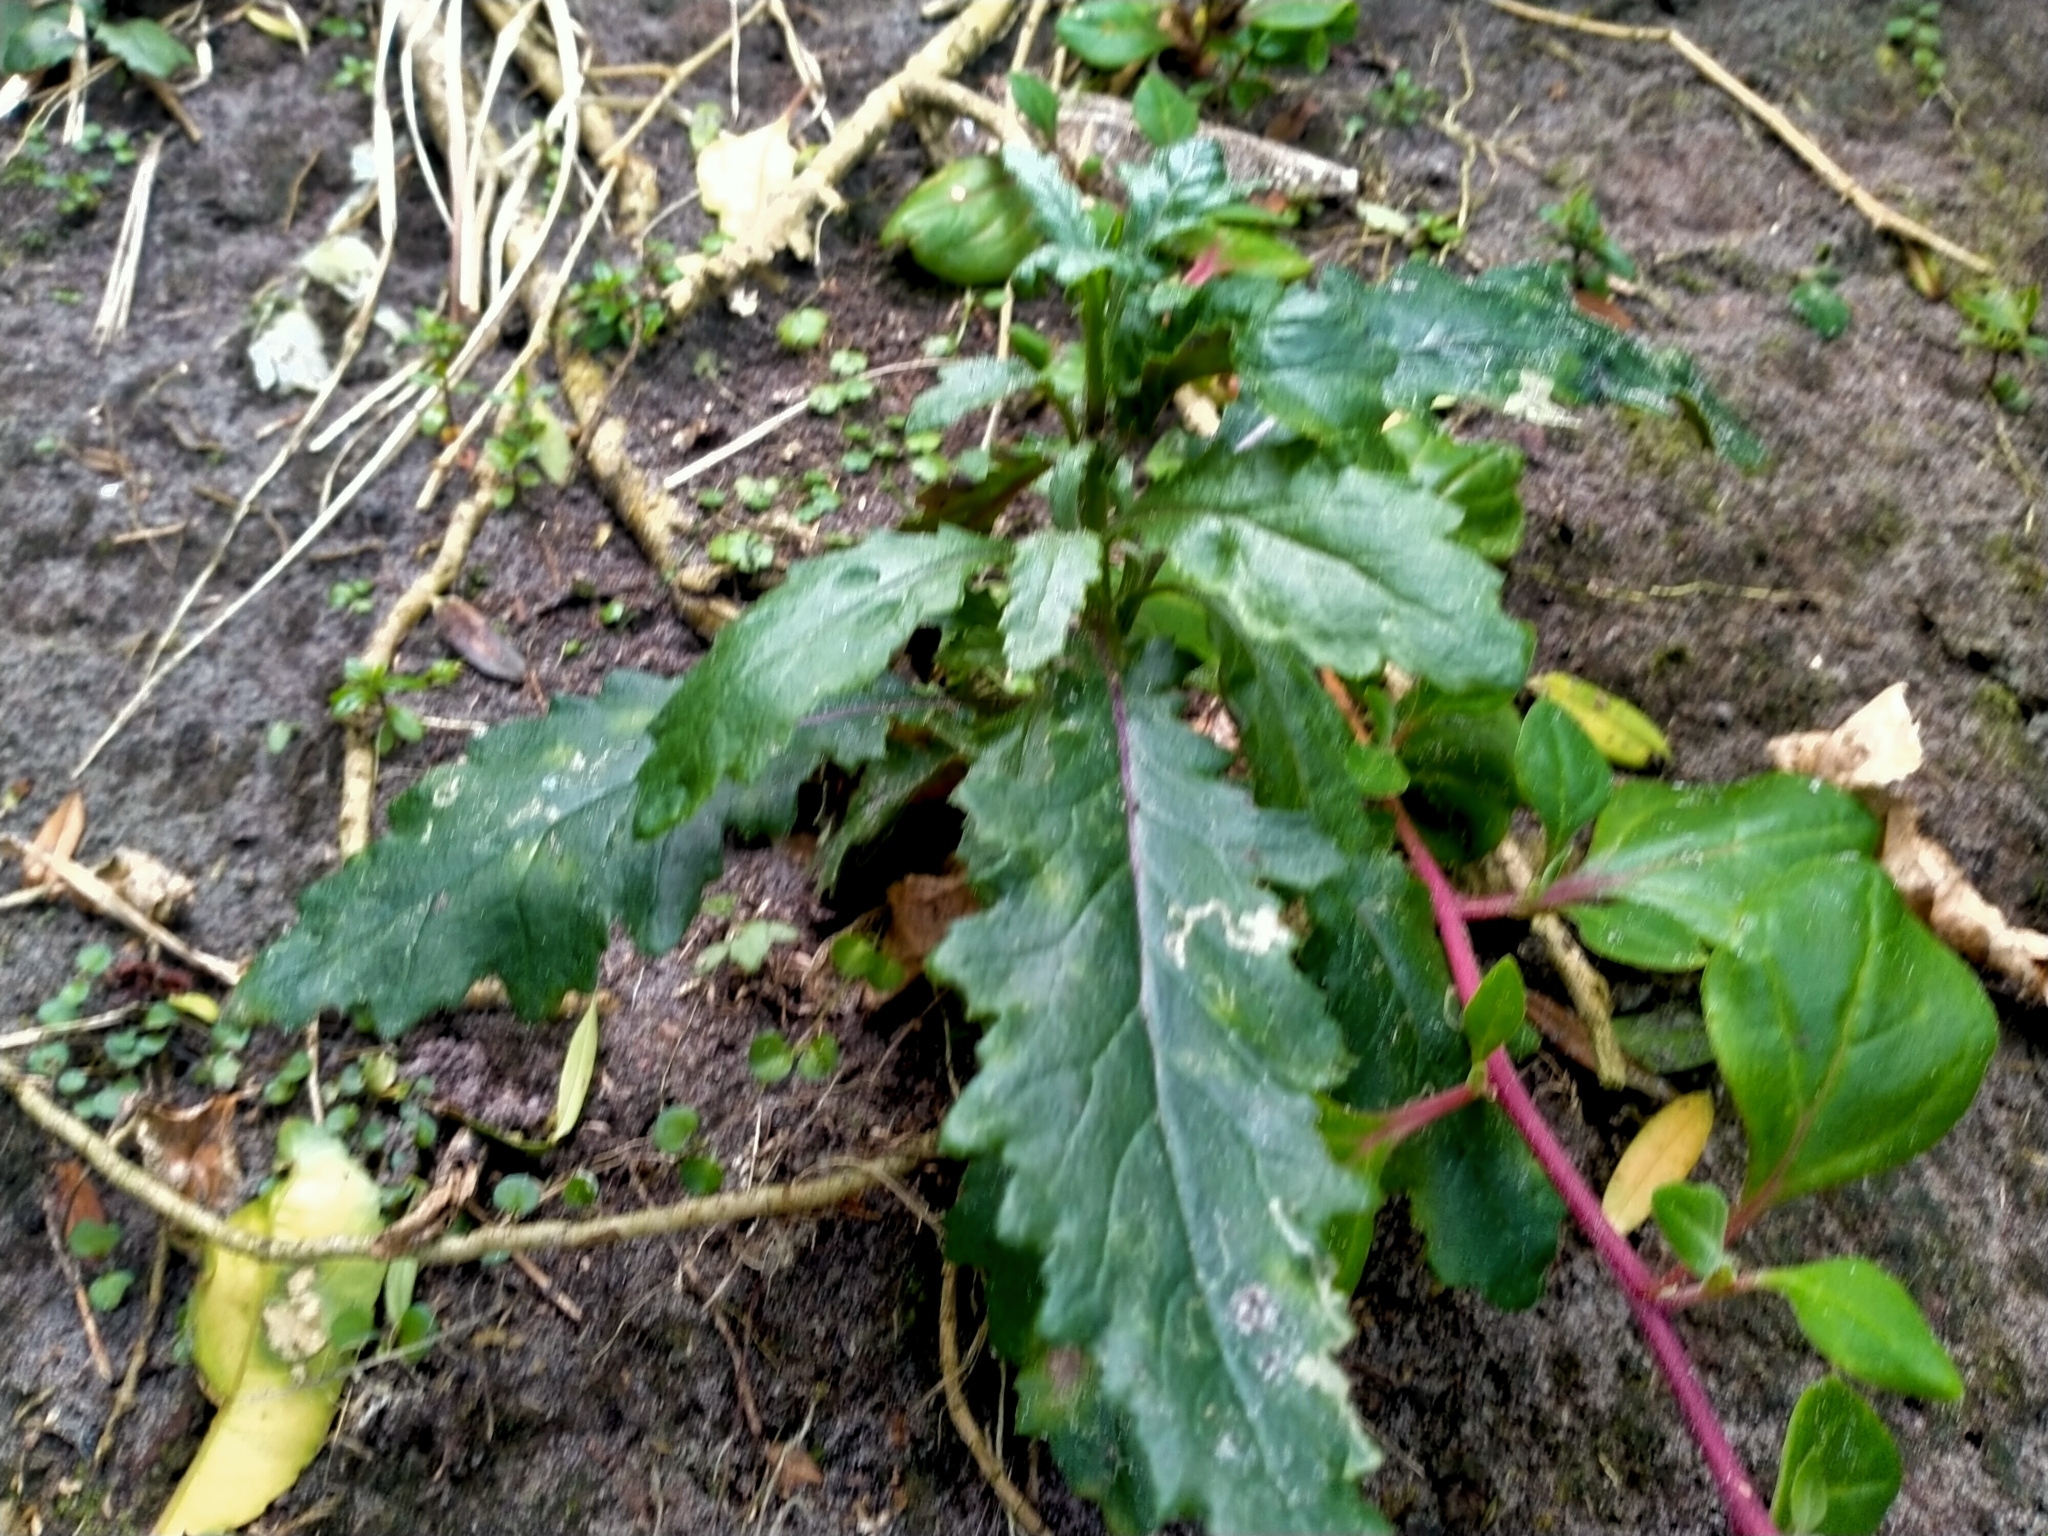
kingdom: Plantae
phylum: Tracheophyta
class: Magnoliopsida
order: Asterales
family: Asteraceae
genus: Senecio
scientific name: Senecio biserratus
